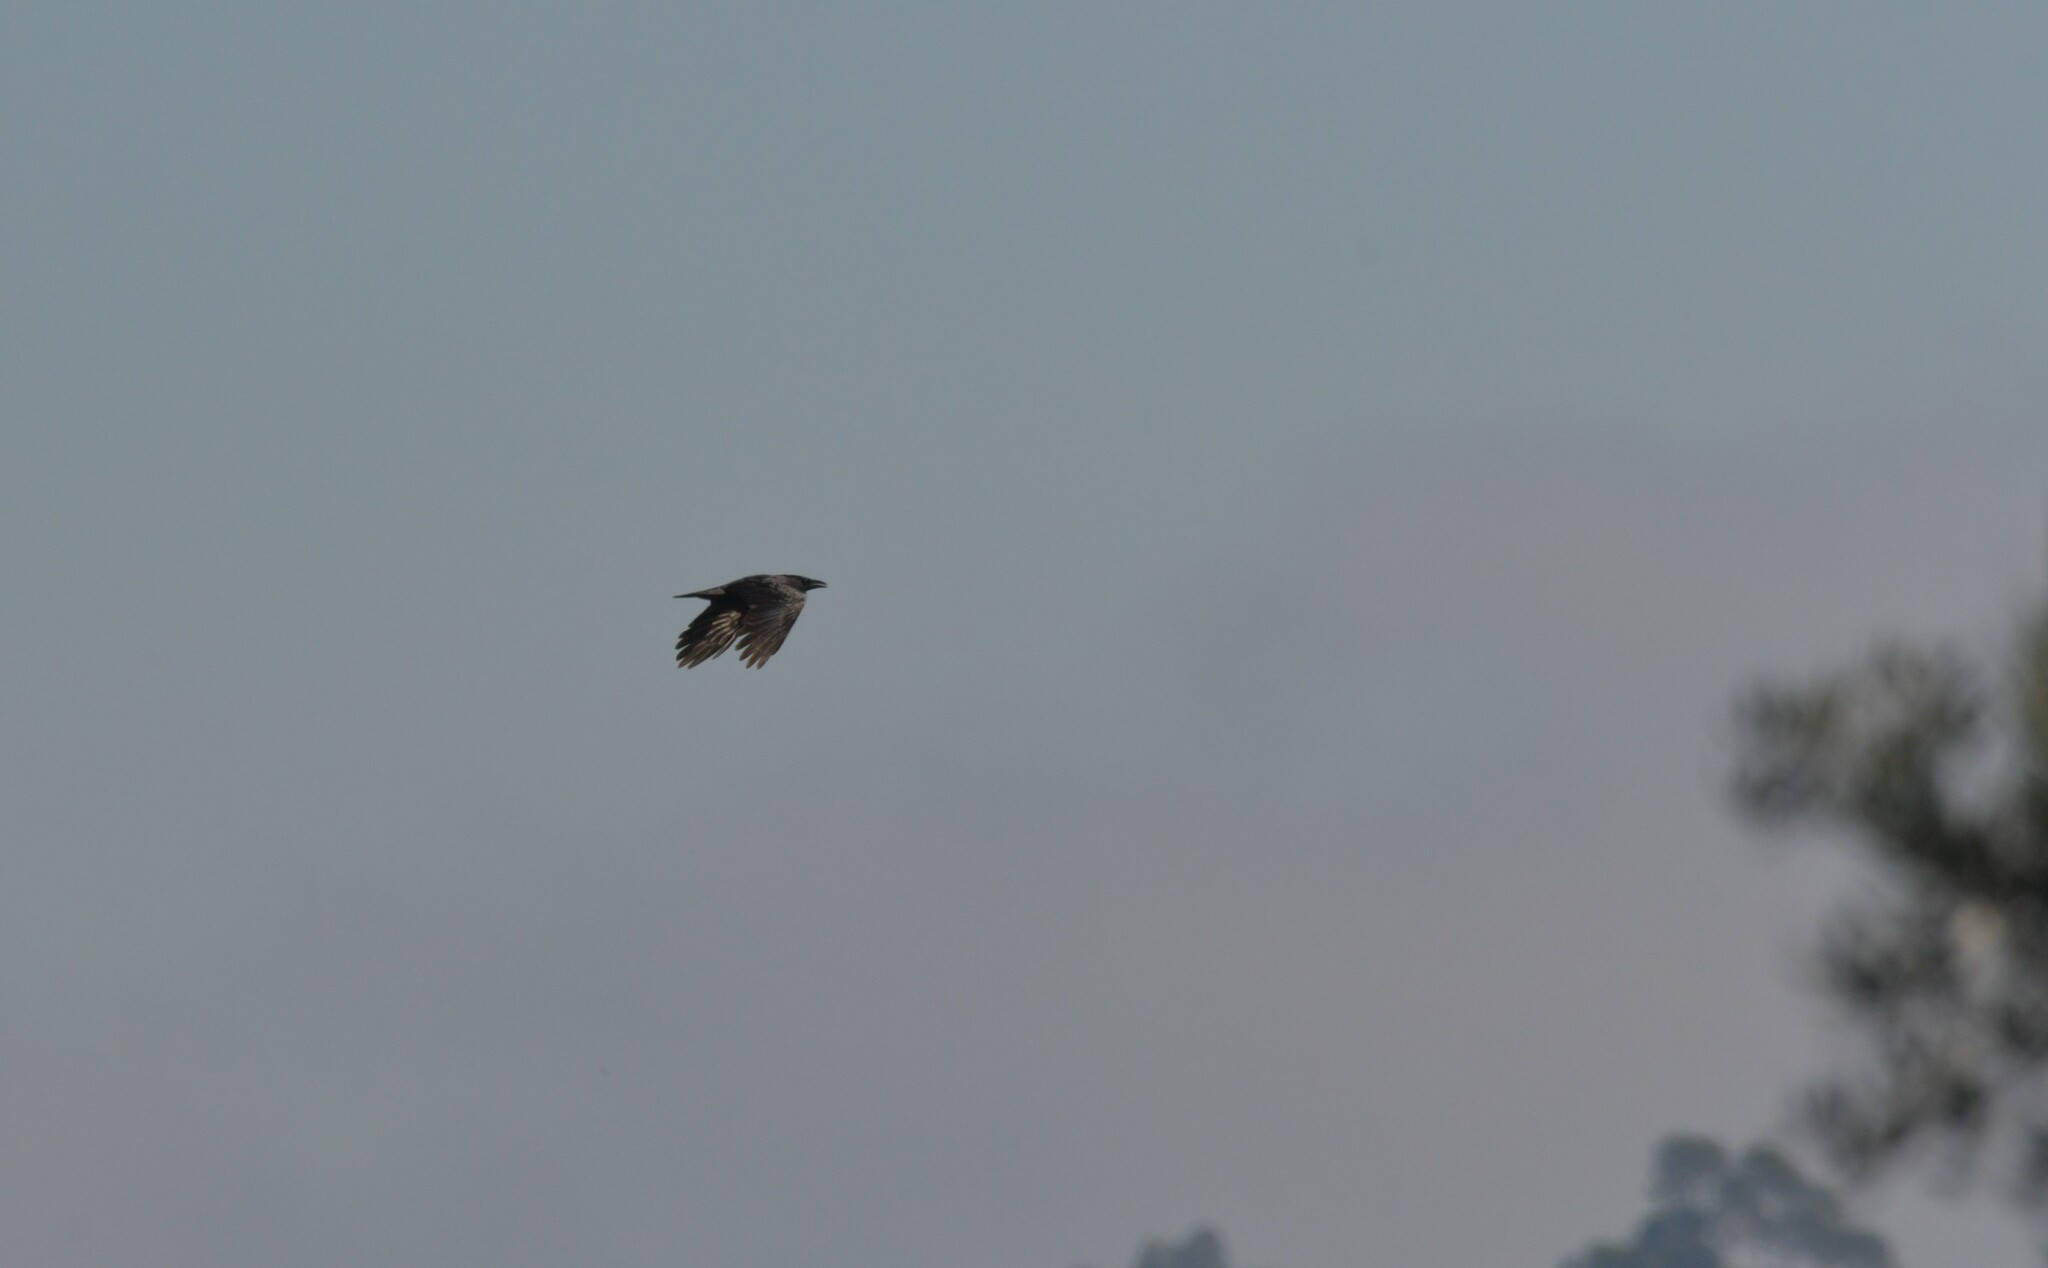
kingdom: Animalia
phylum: Chordata
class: Aves
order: Passeriformes
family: Corvidae
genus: Corvus
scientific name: Corvus corone
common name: Carrion crow
